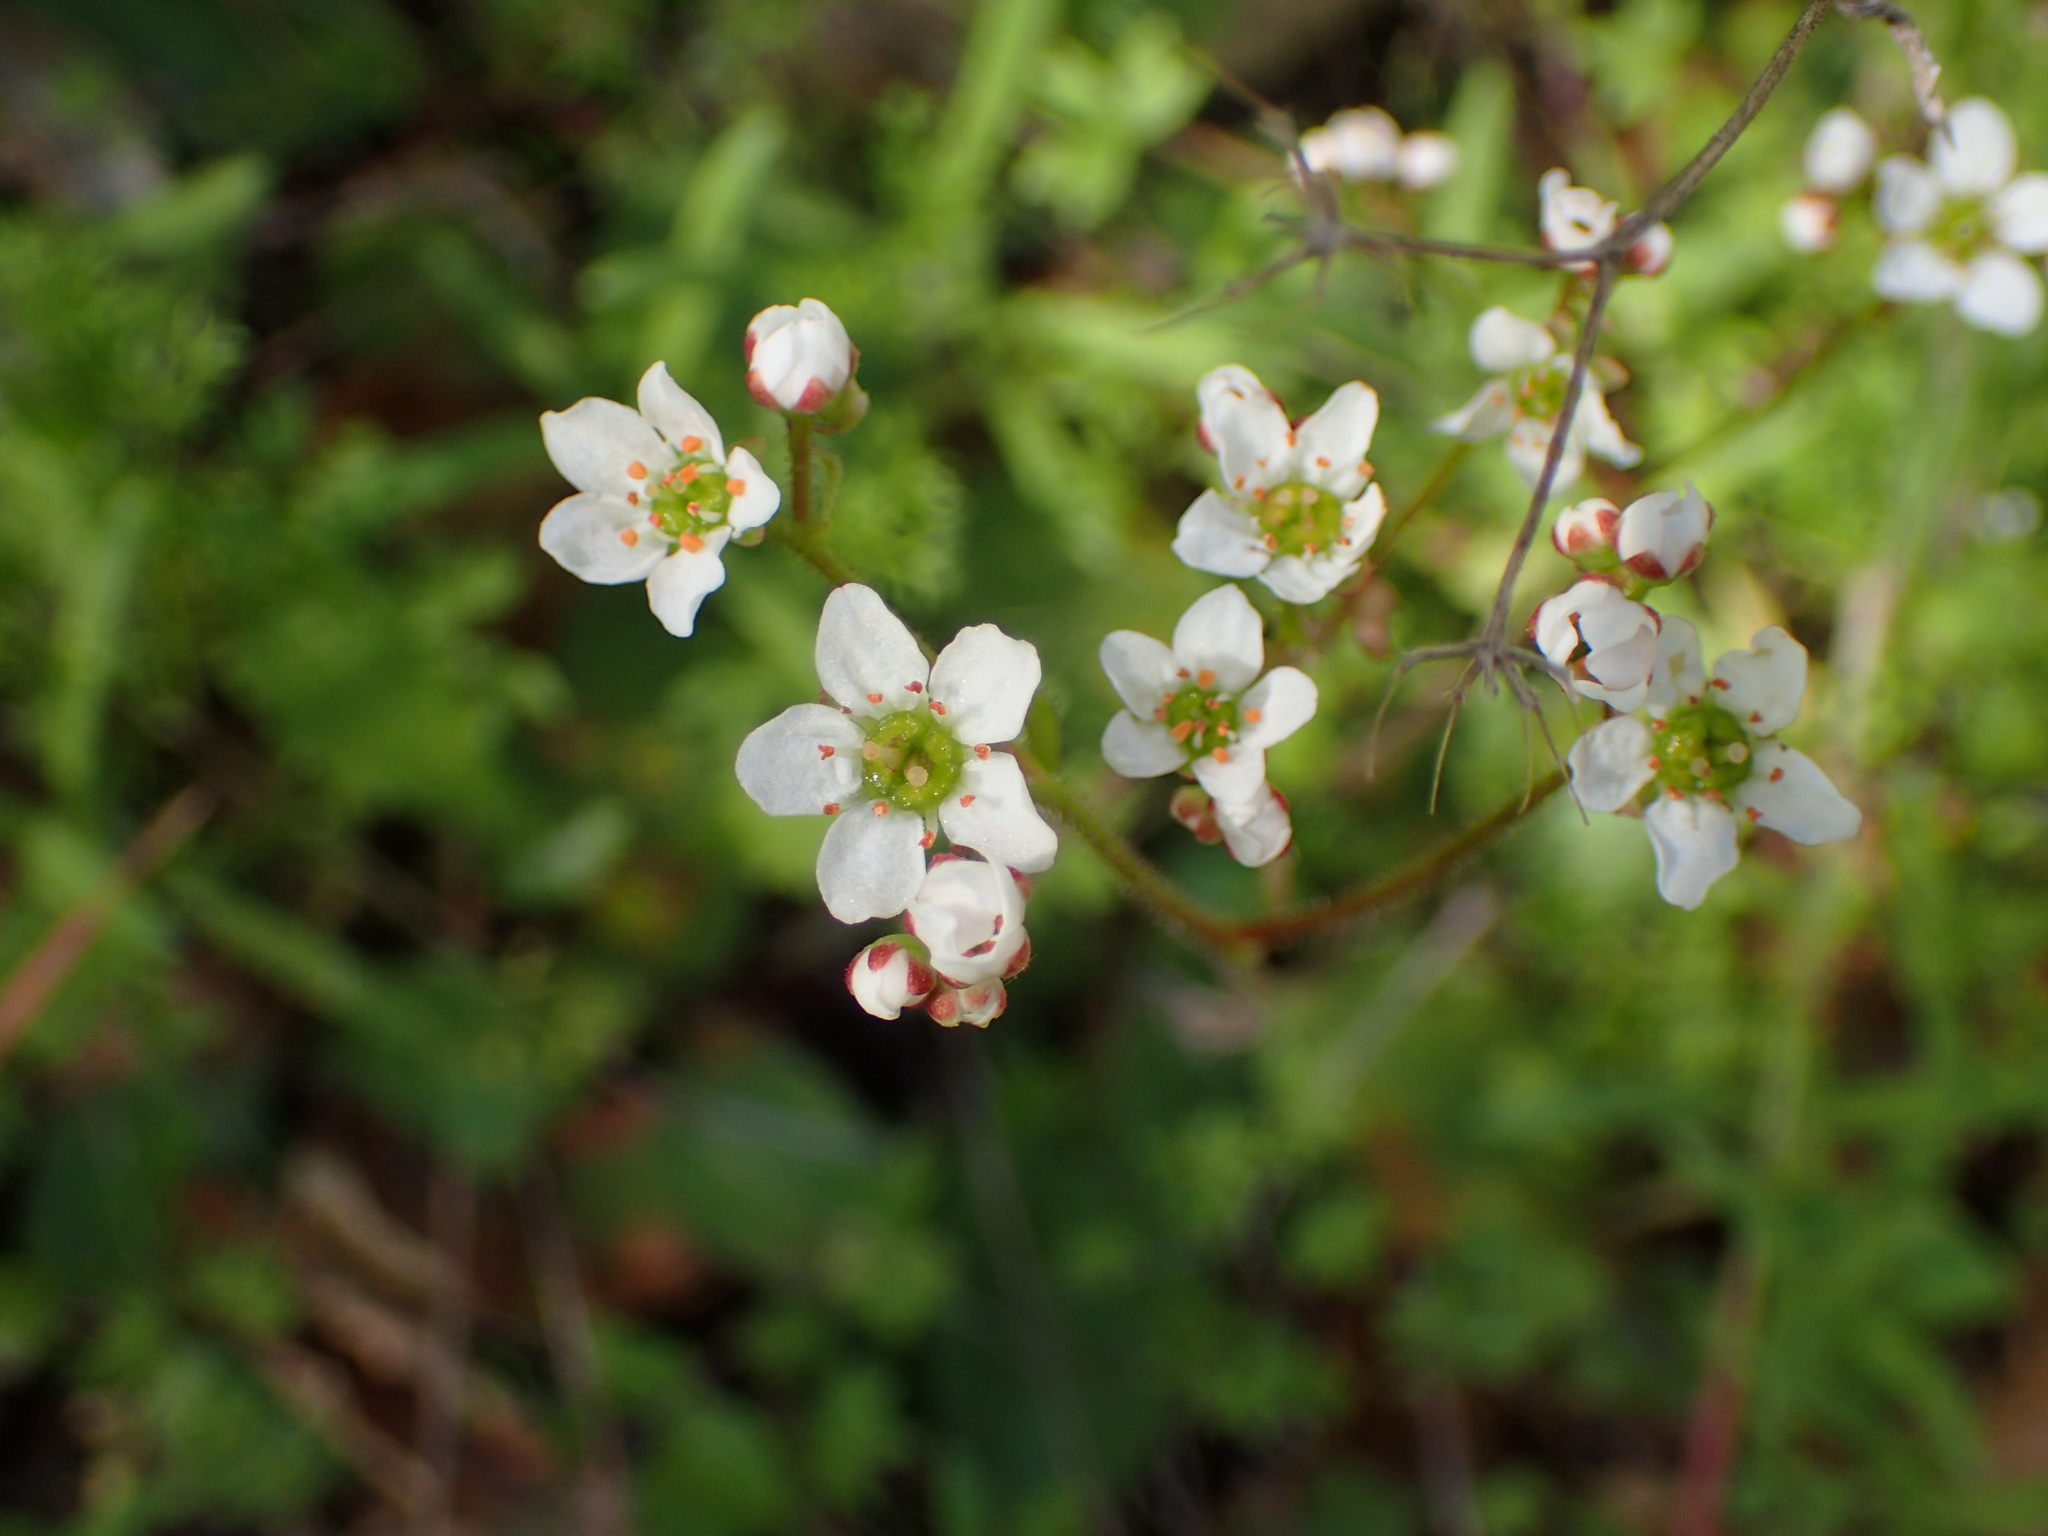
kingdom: Plantae
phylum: Tracheophyta
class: Magnoliopsida
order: Saxifragales
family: Saxifragaceae
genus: Micranthes
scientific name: Micranthes californica
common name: California saxifrage
